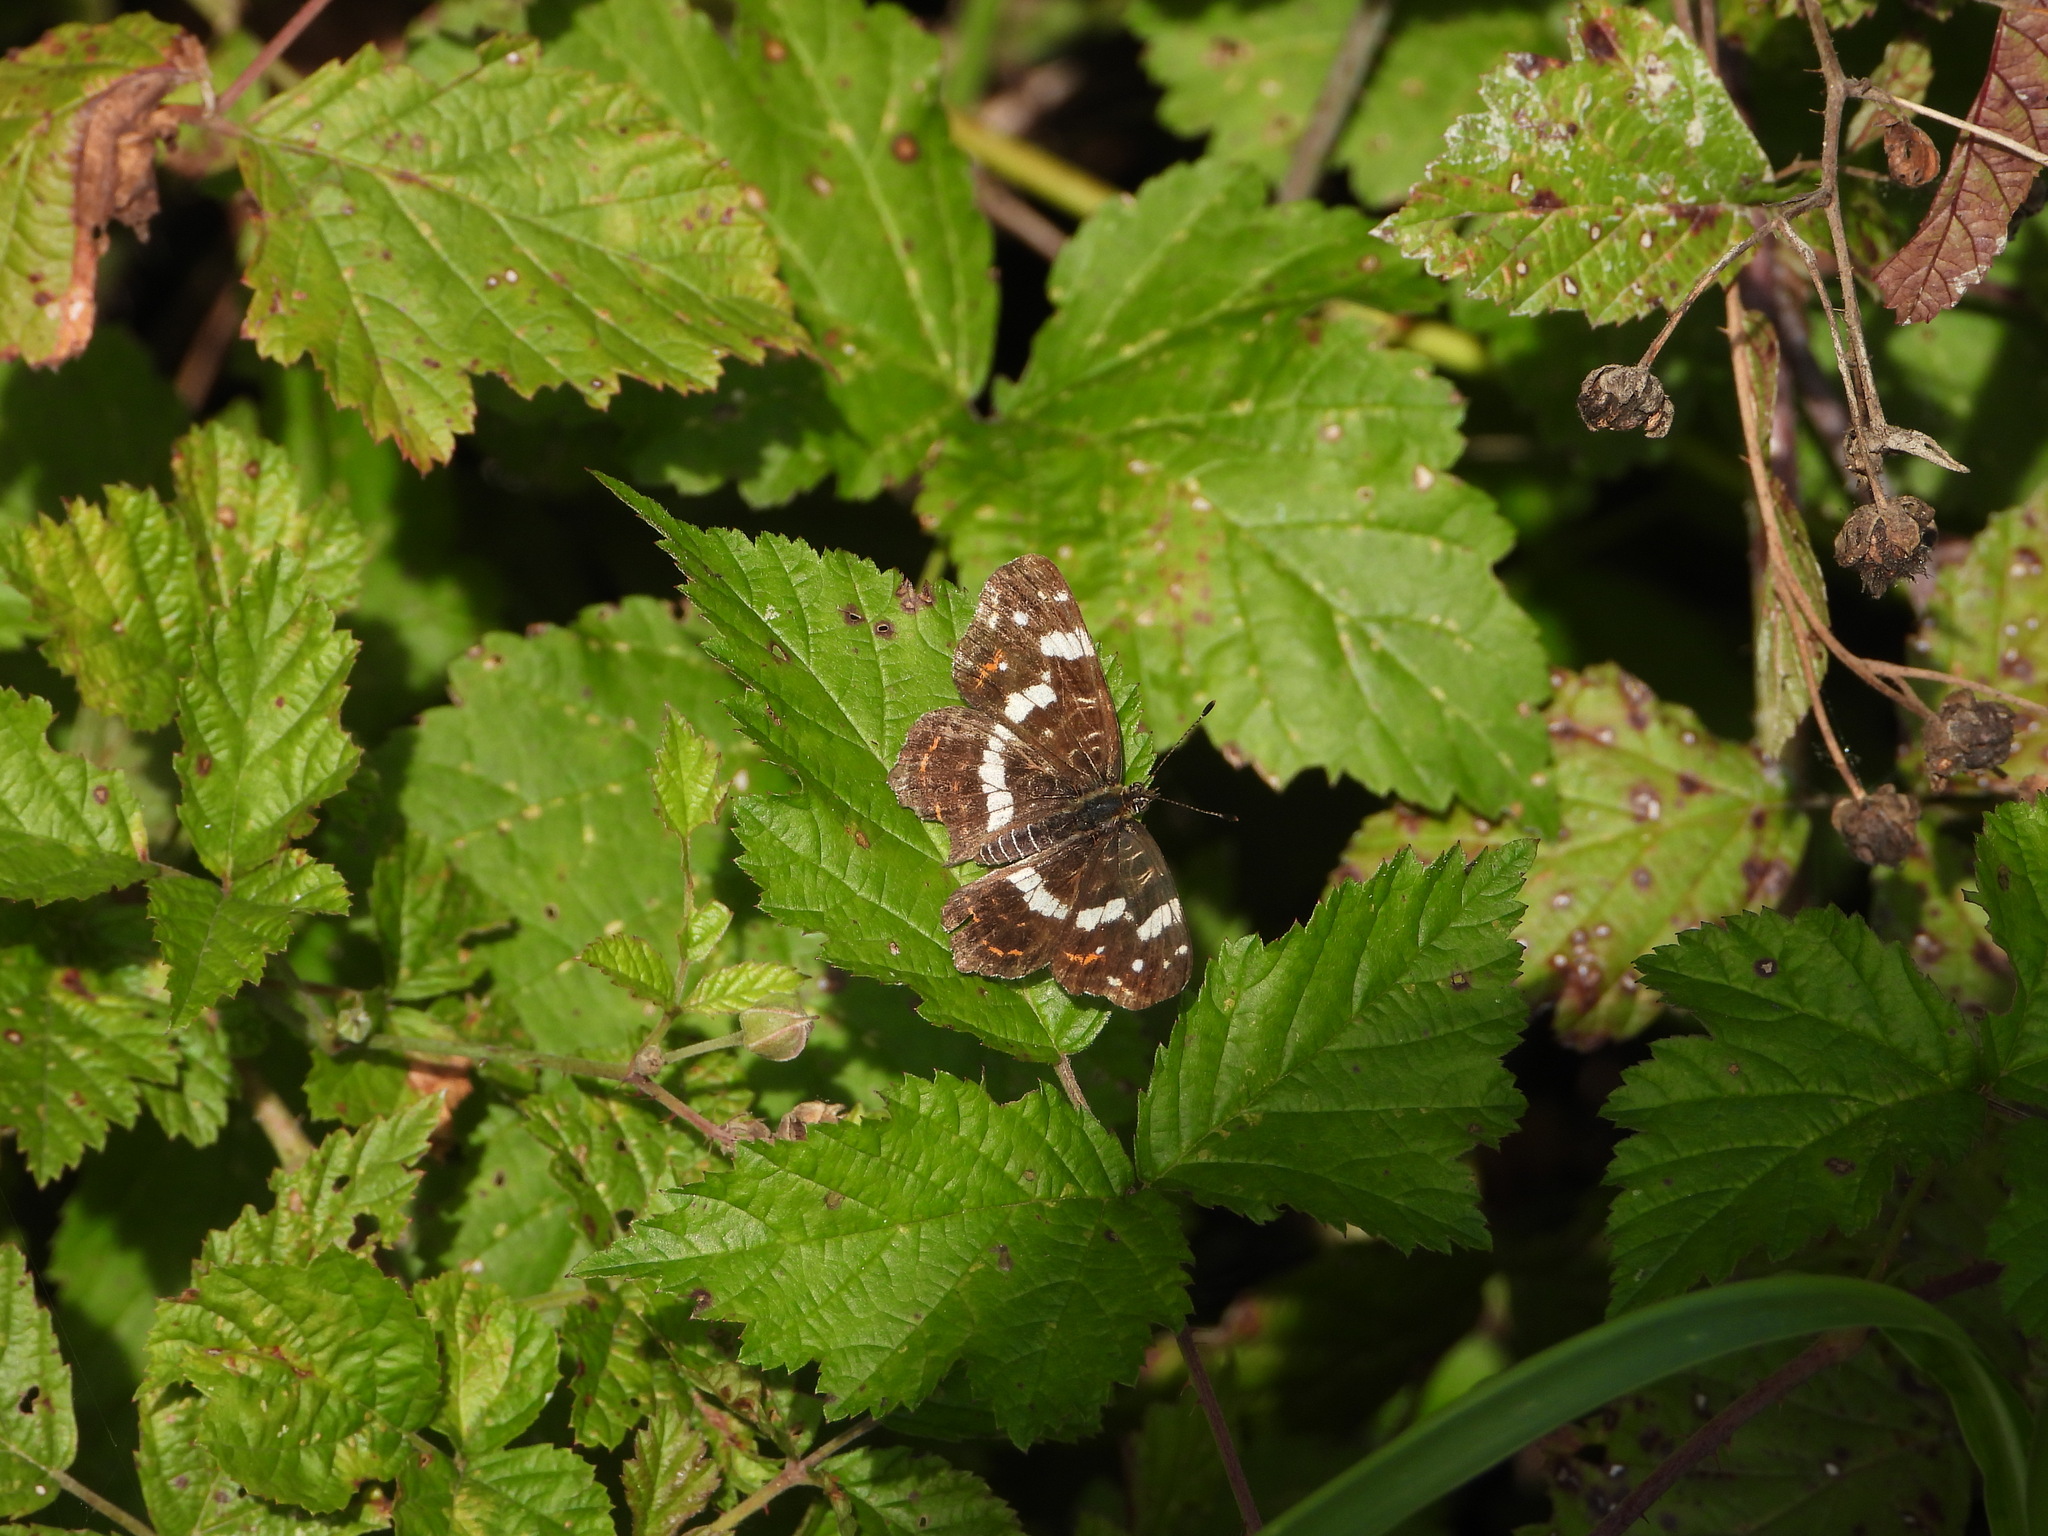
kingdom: Animalia
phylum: Arthropoda
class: Insecta
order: Lepidoptera
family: Nymphalidae
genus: Araschnia
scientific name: Araschnia levana
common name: Map butterfly
